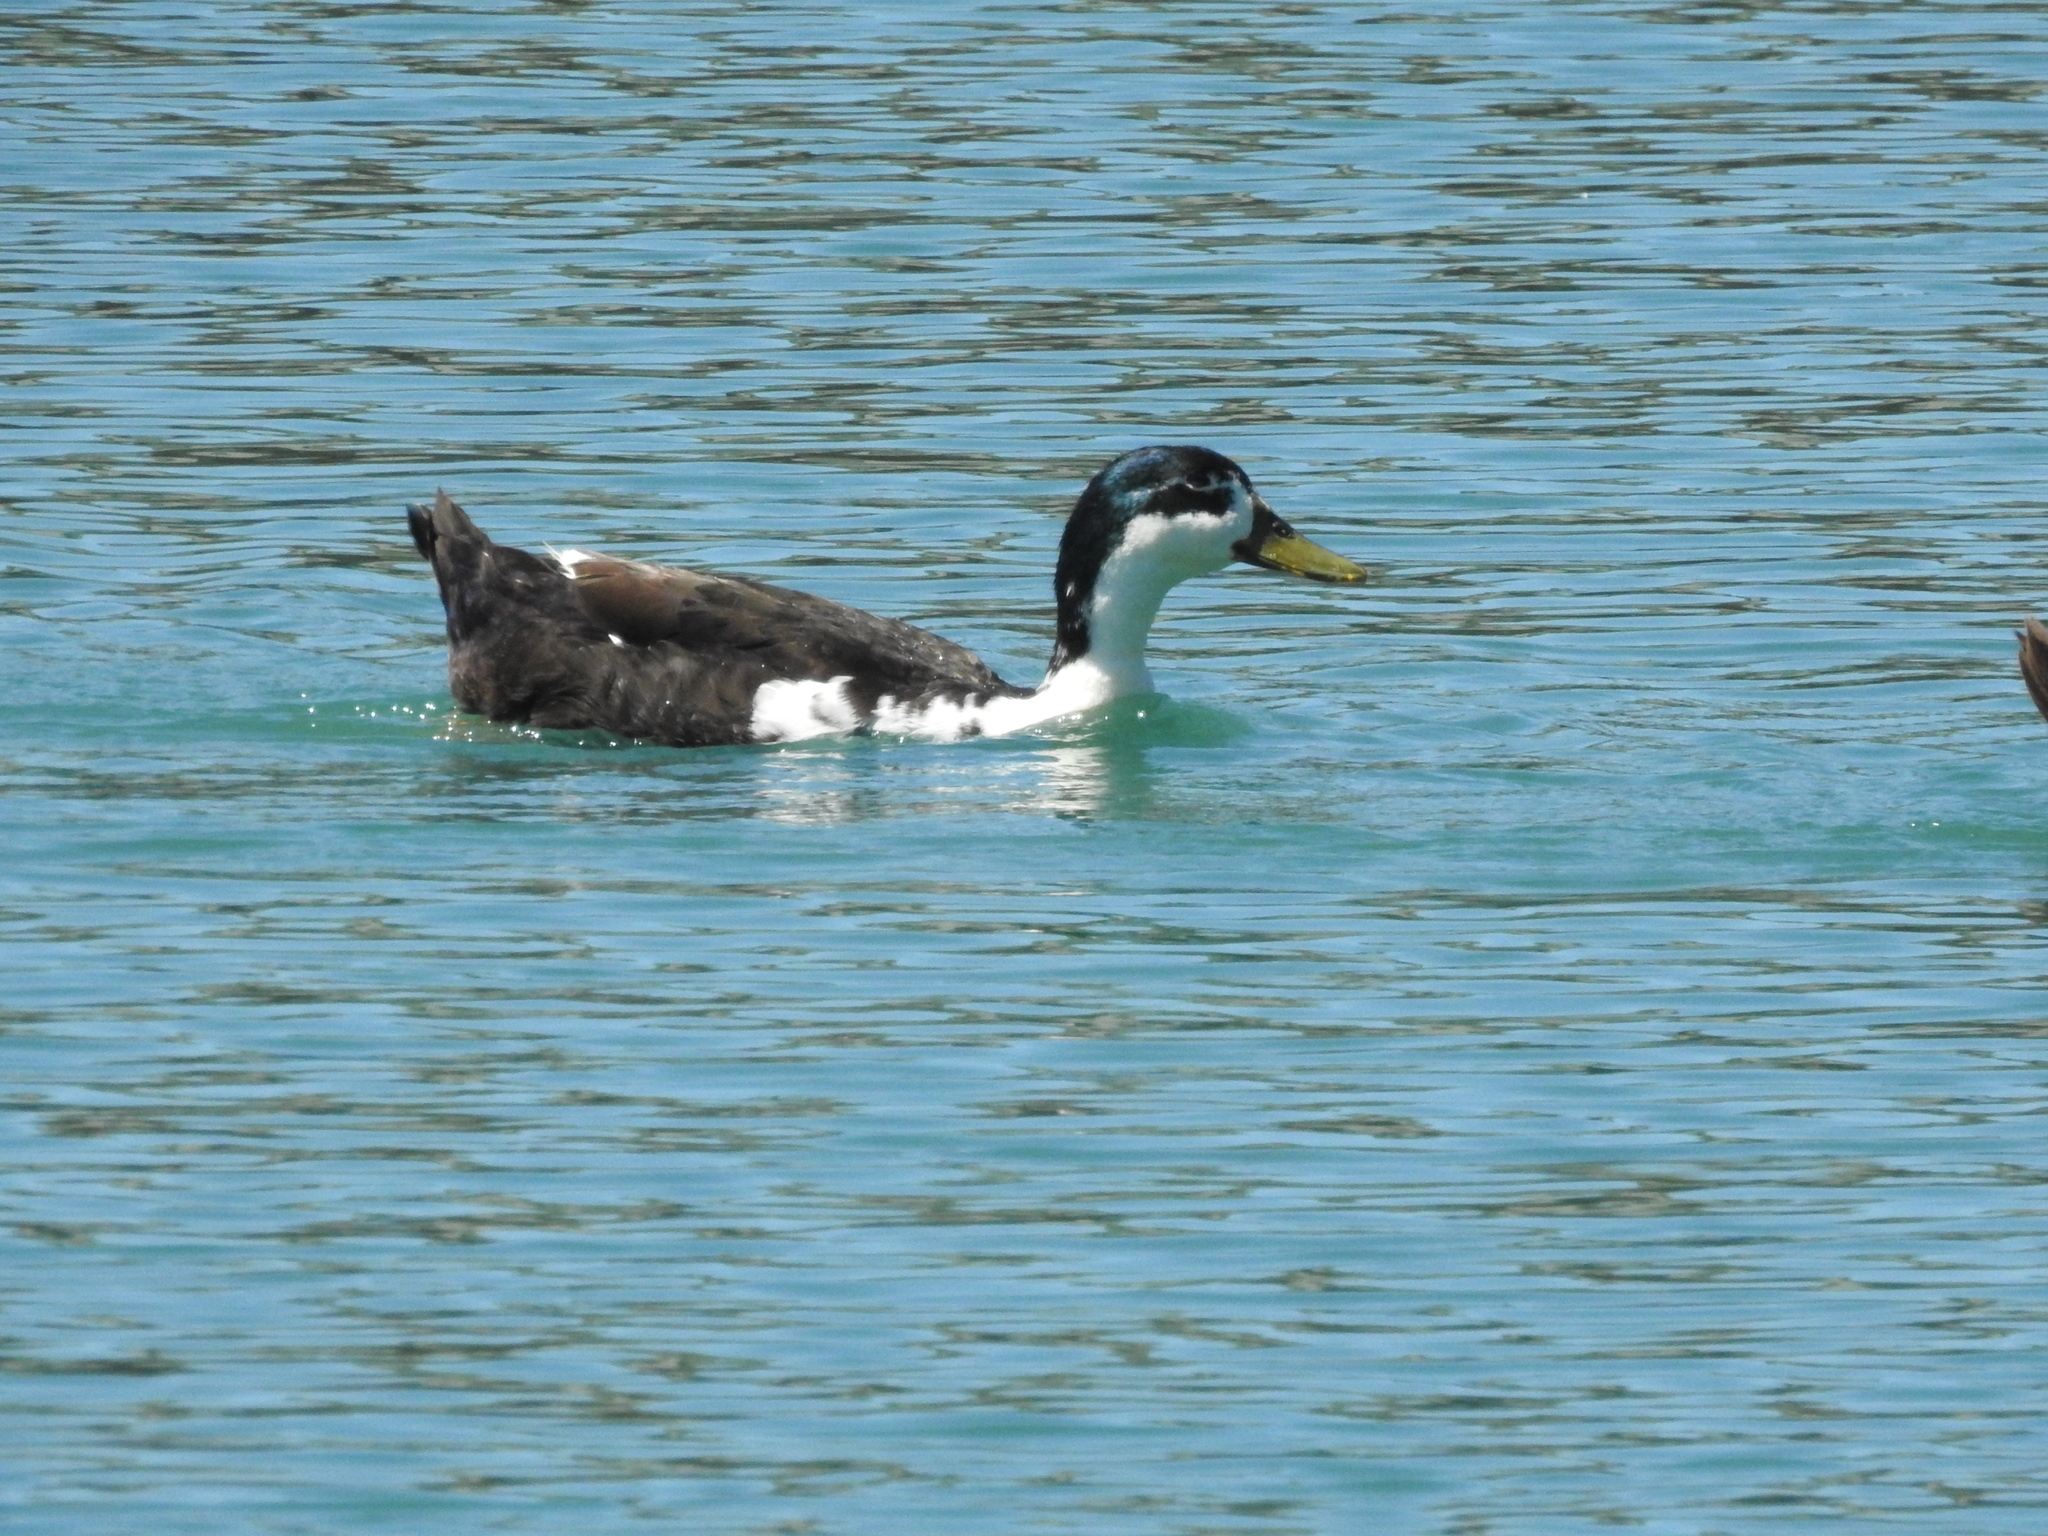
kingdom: Animalia
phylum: Chordata
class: Aves
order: Anseriformes
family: Anatidae
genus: Anas
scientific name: Anas platyrhynchos
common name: Mallard
